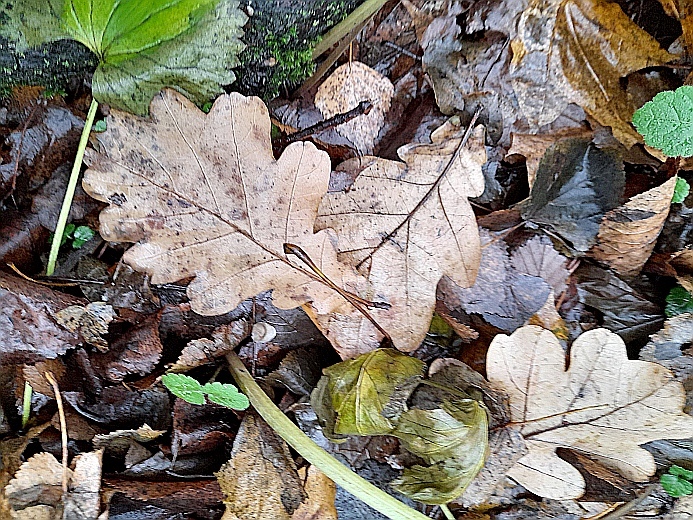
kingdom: Plantae
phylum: Tracheophyta
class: Magnoliopsida
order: Fagales
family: Fagaceae
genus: Quercus
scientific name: Quercus robur
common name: Pedunculate oak
